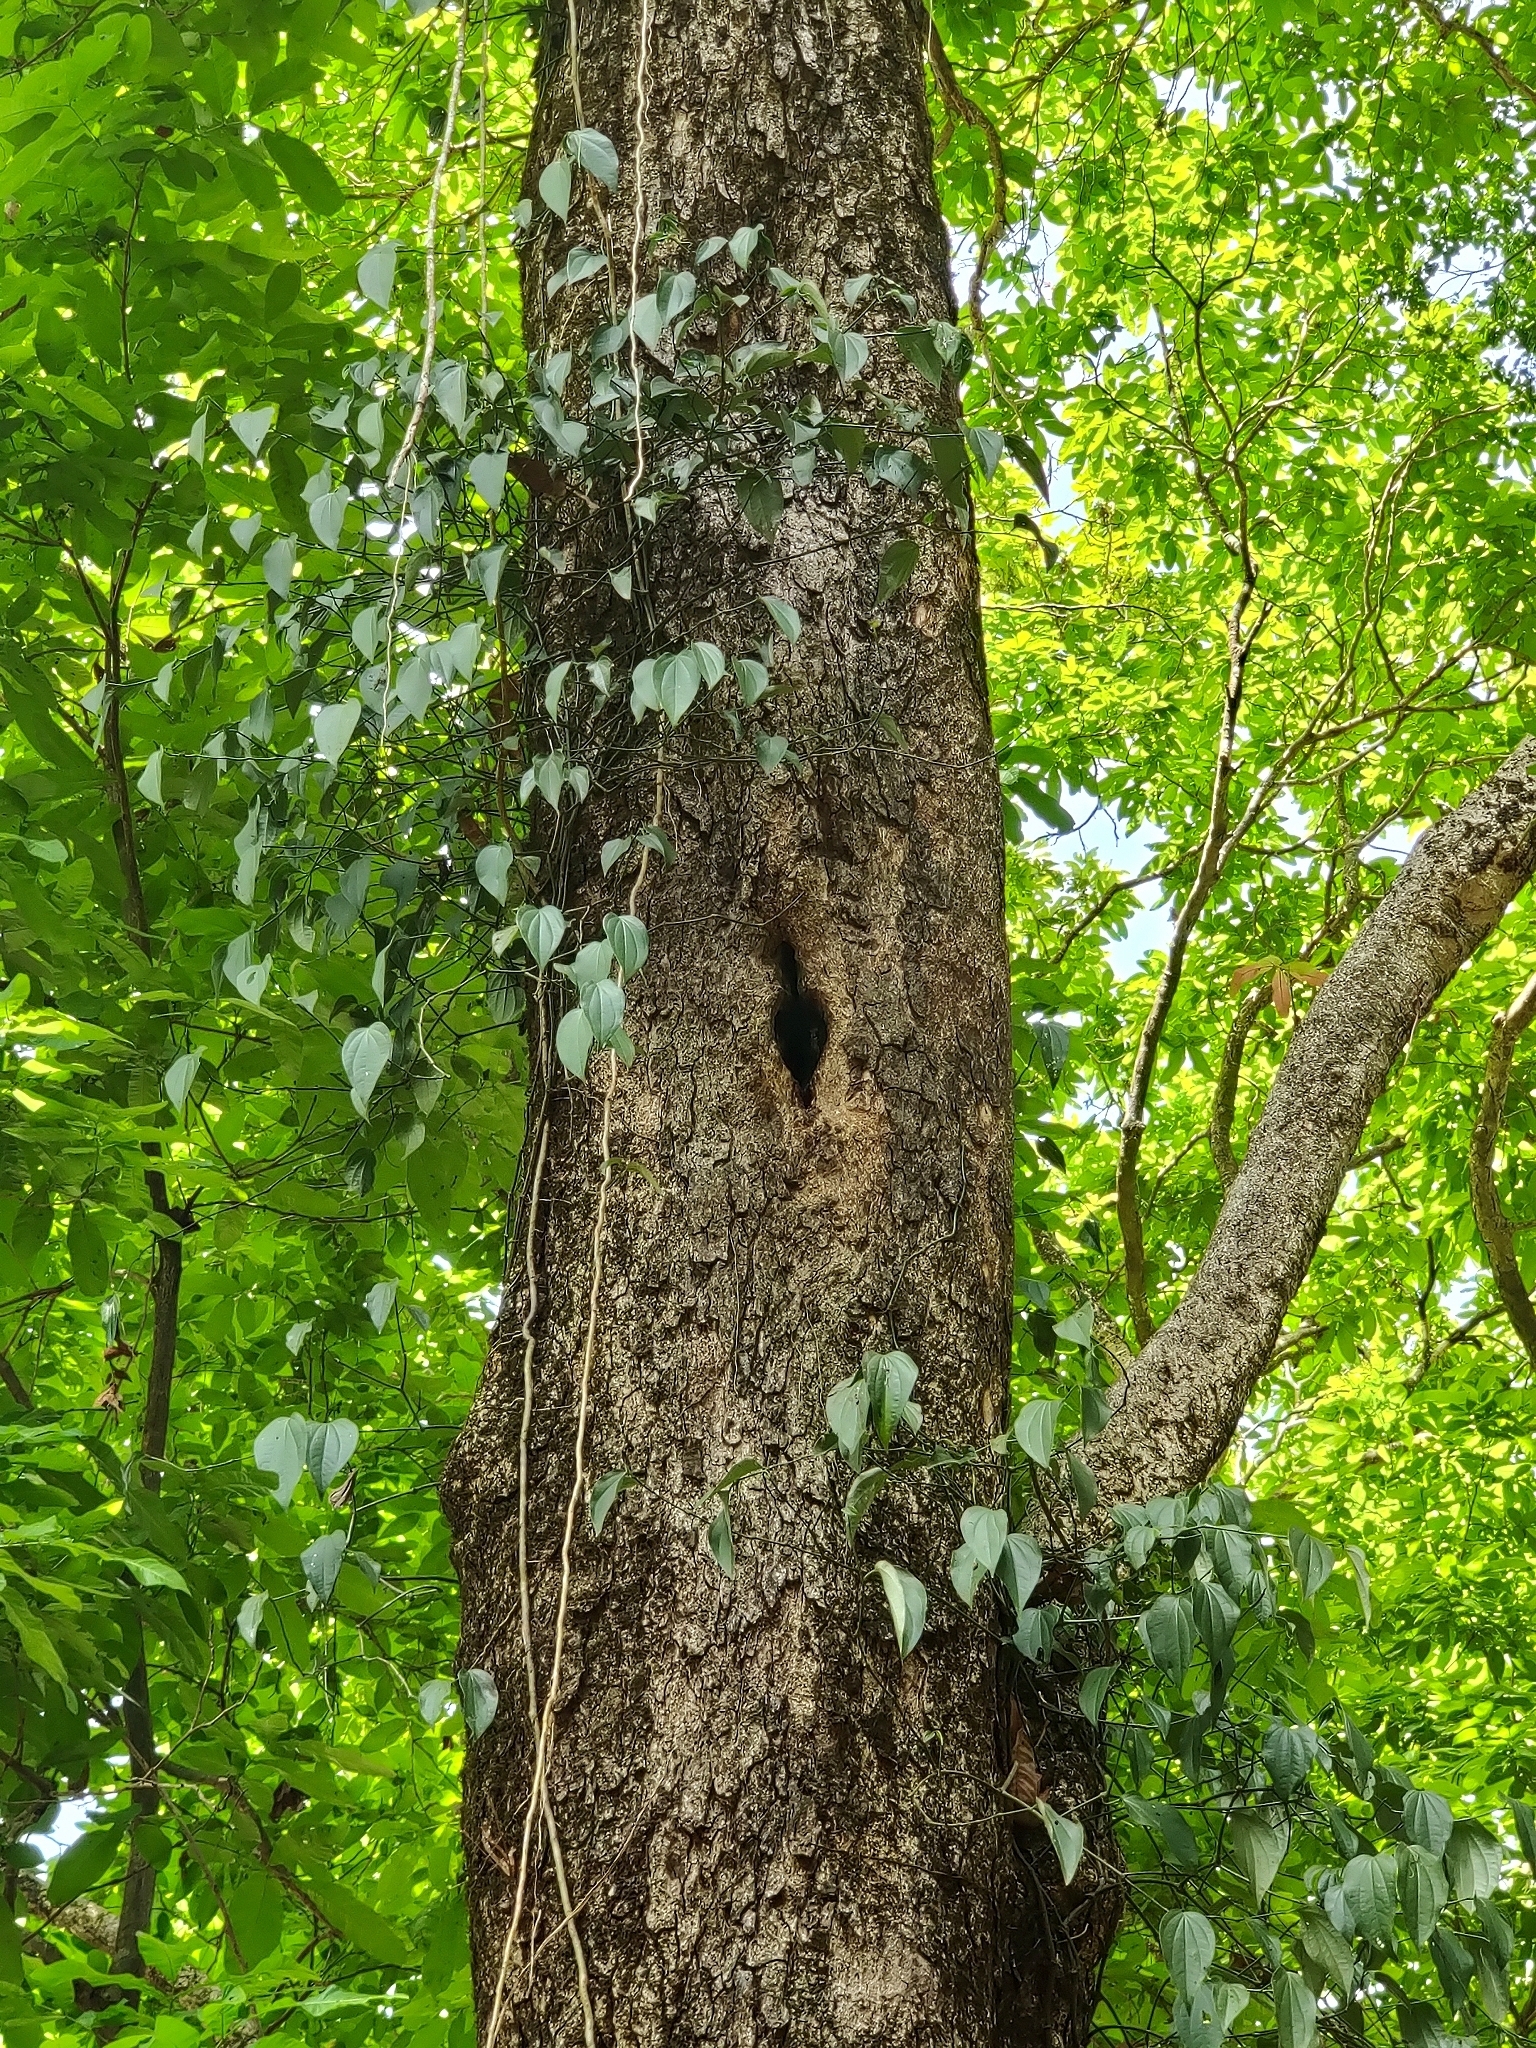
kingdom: Animalia
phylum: Chordata
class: Aves
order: Bucerotiformes
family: Bucerotidae
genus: Ocyceros
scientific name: Ocyceros griseus
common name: Malabar grey hornbill
